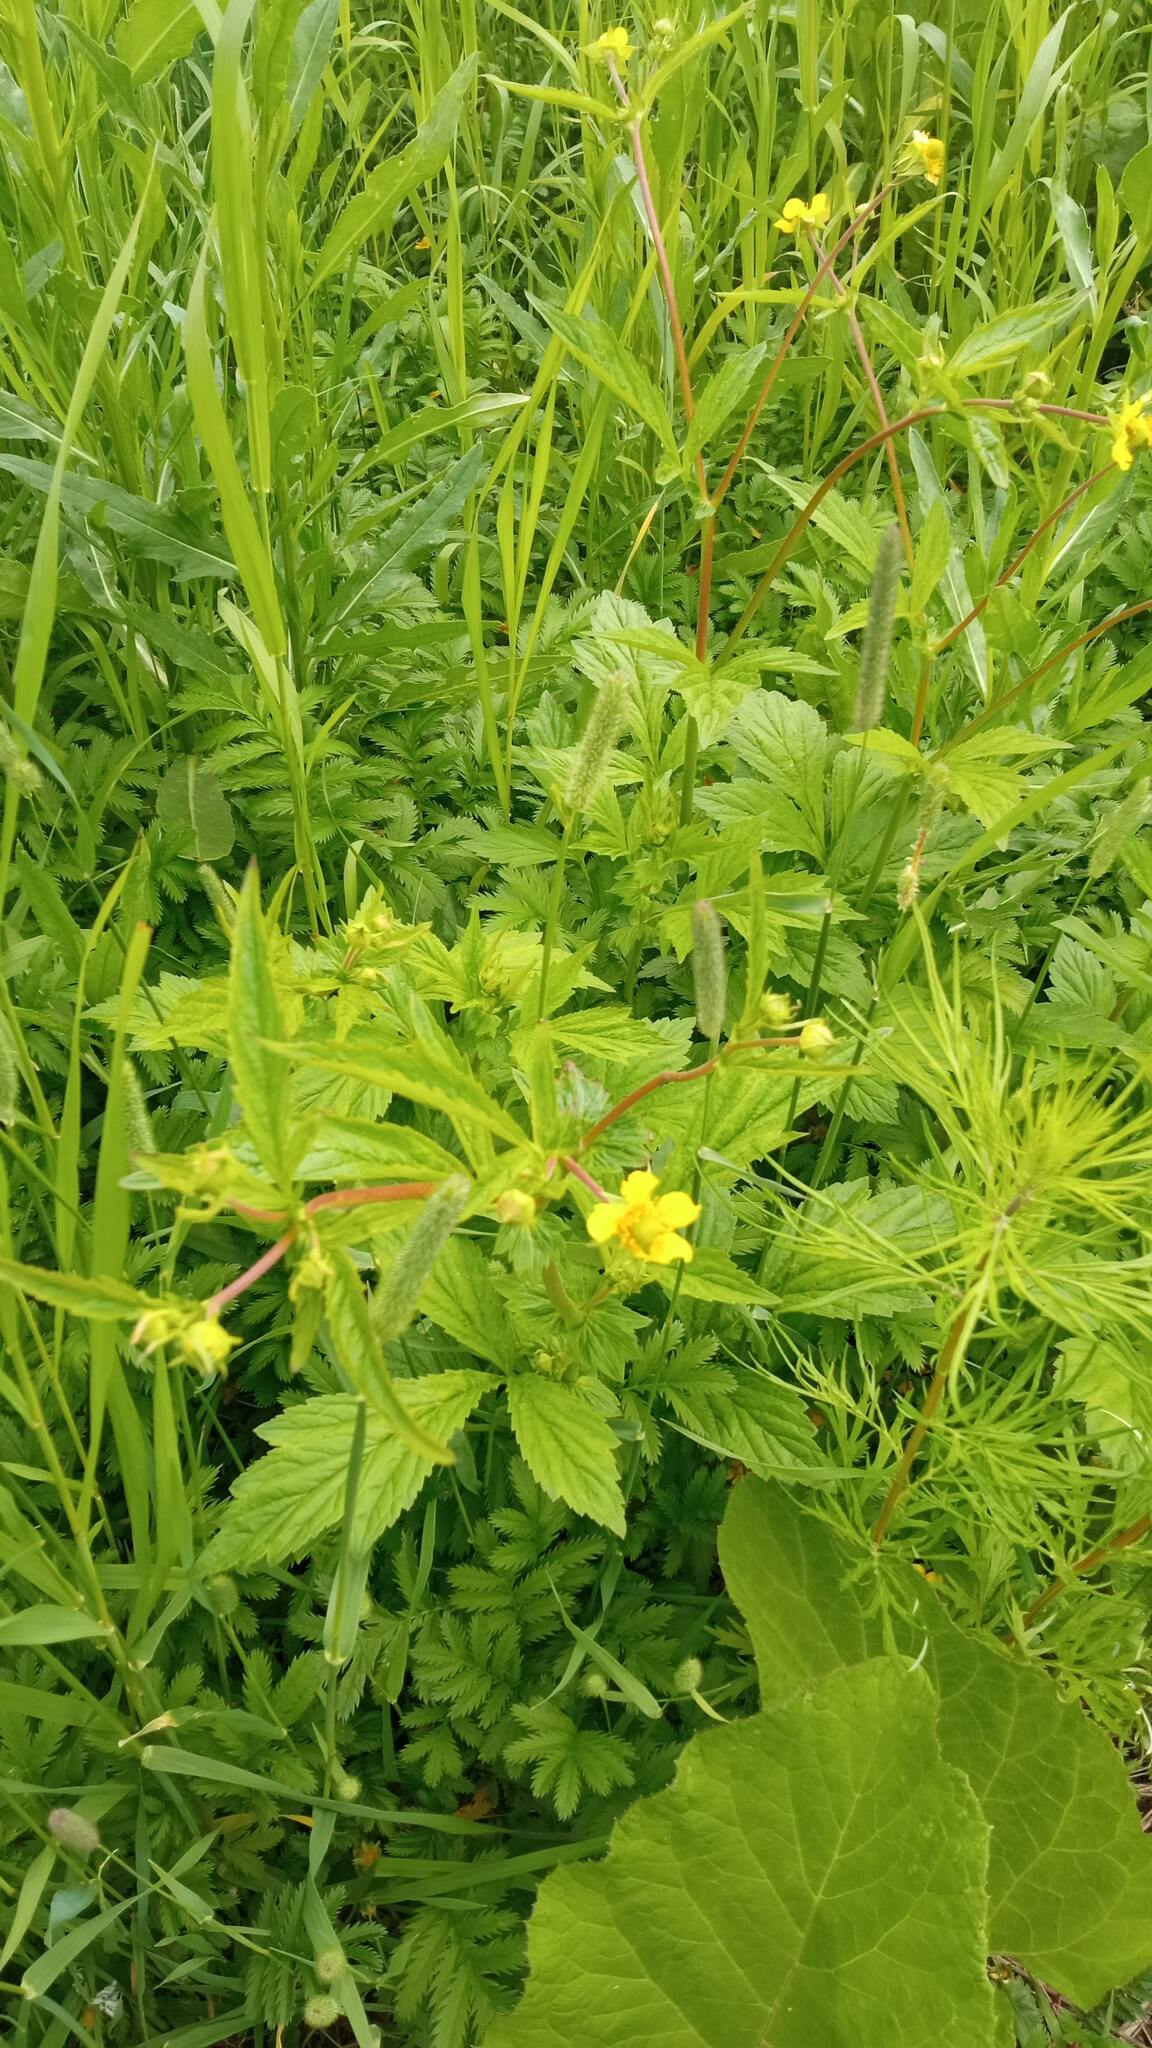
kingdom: Plantae
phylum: Tracheophyta
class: Magnoliopsida
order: Rosales
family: Rosaceae
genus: Geum
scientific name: Geum aleppicum
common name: Yellow avens
